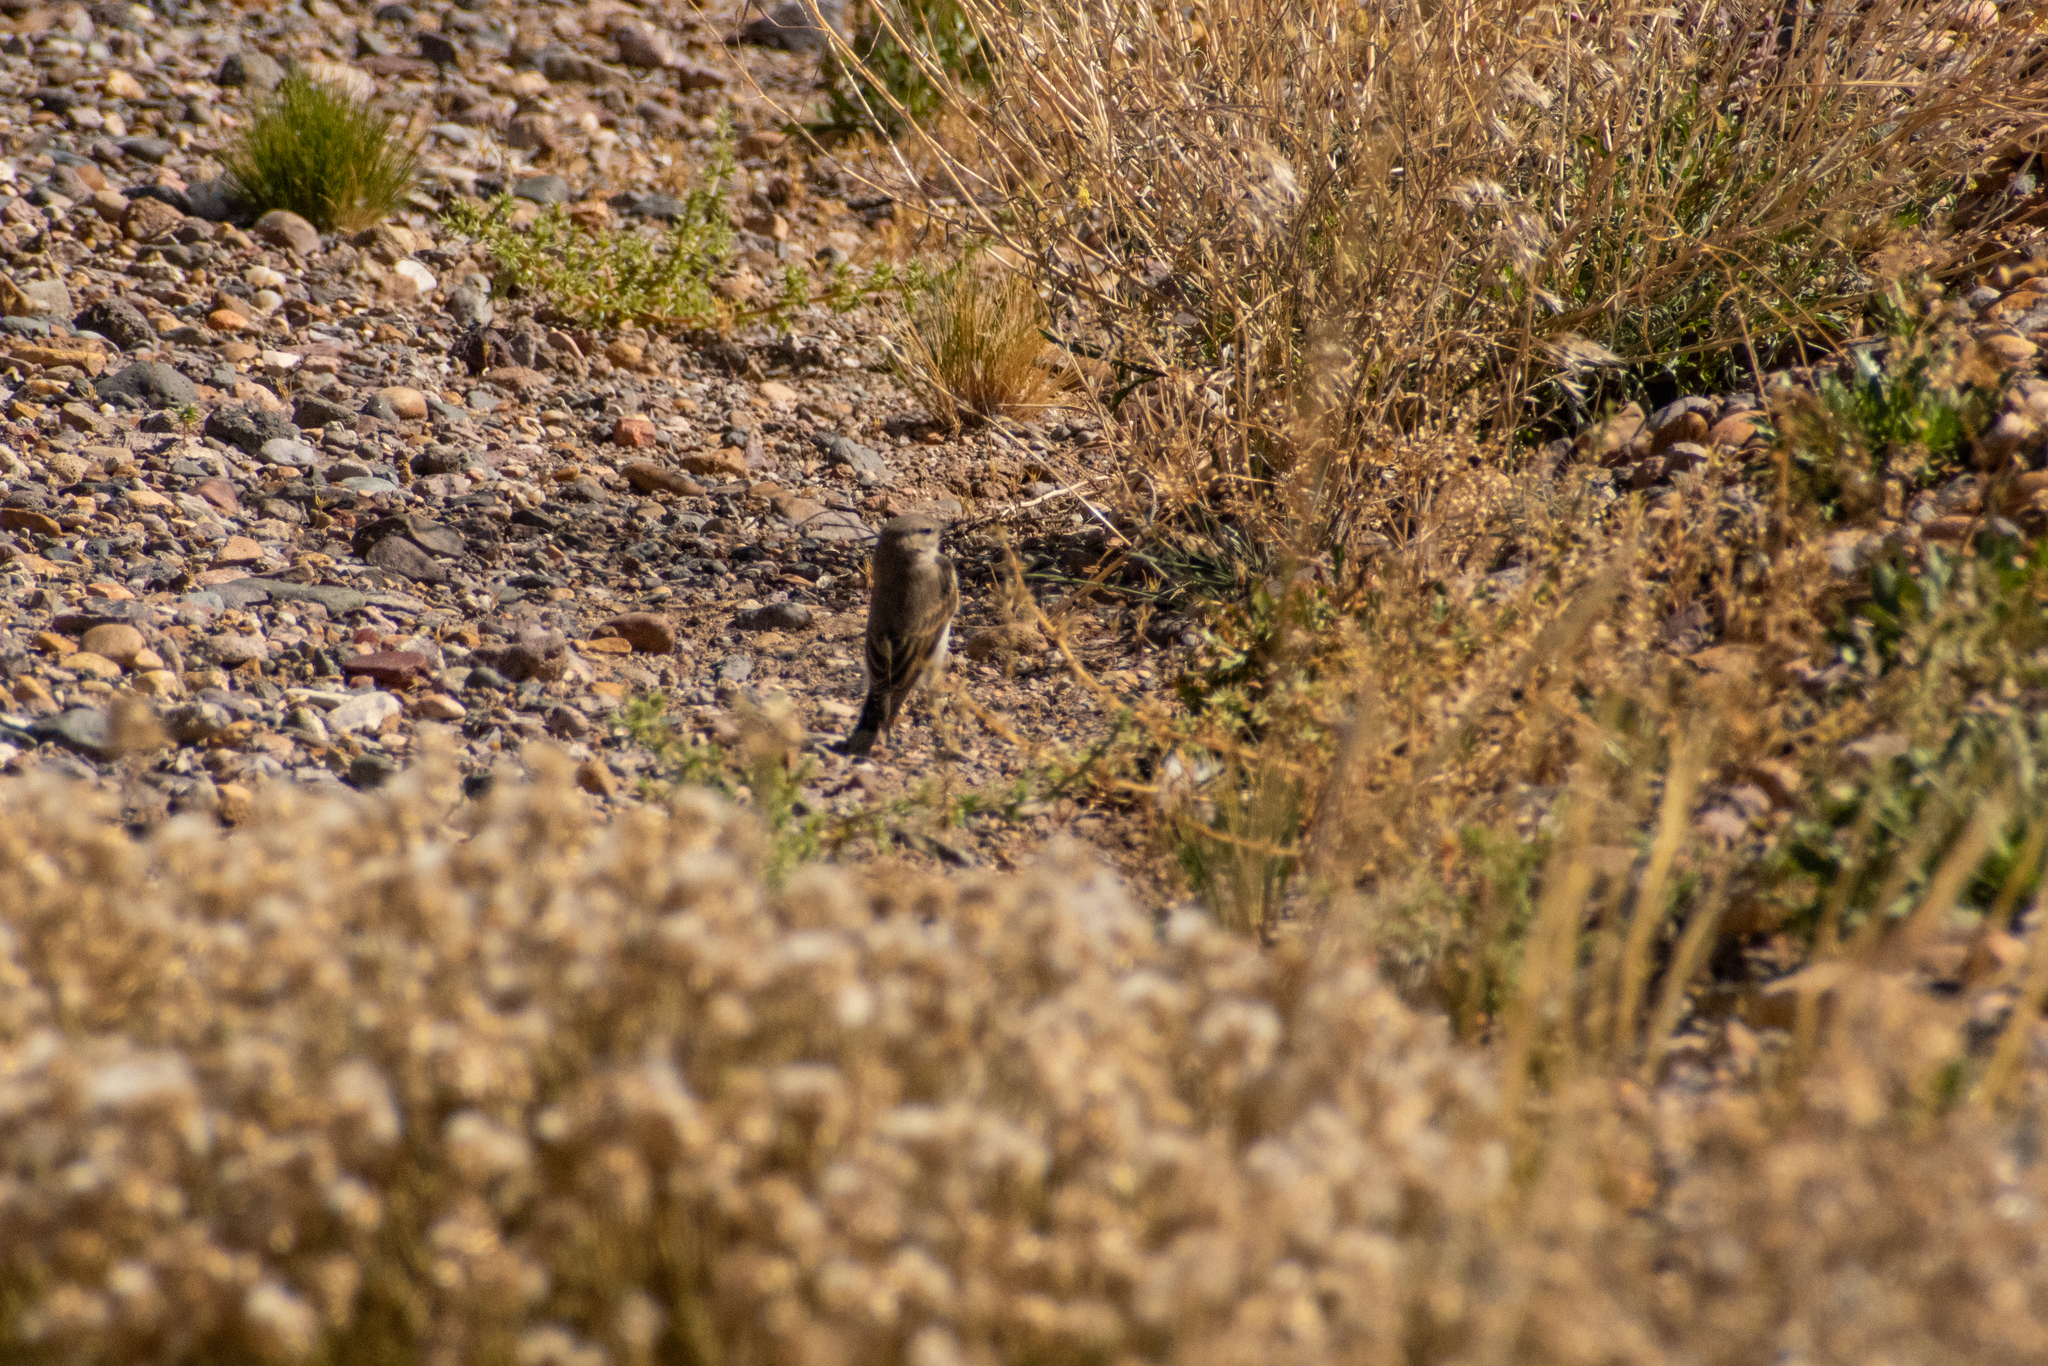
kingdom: Animalia
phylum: Chordata
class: Aves
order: Passeriformes
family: Tyrannidae
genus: Muscisaxicola
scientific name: Muscisaxicola maculirostris
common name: Spot-billed ground tyrant
